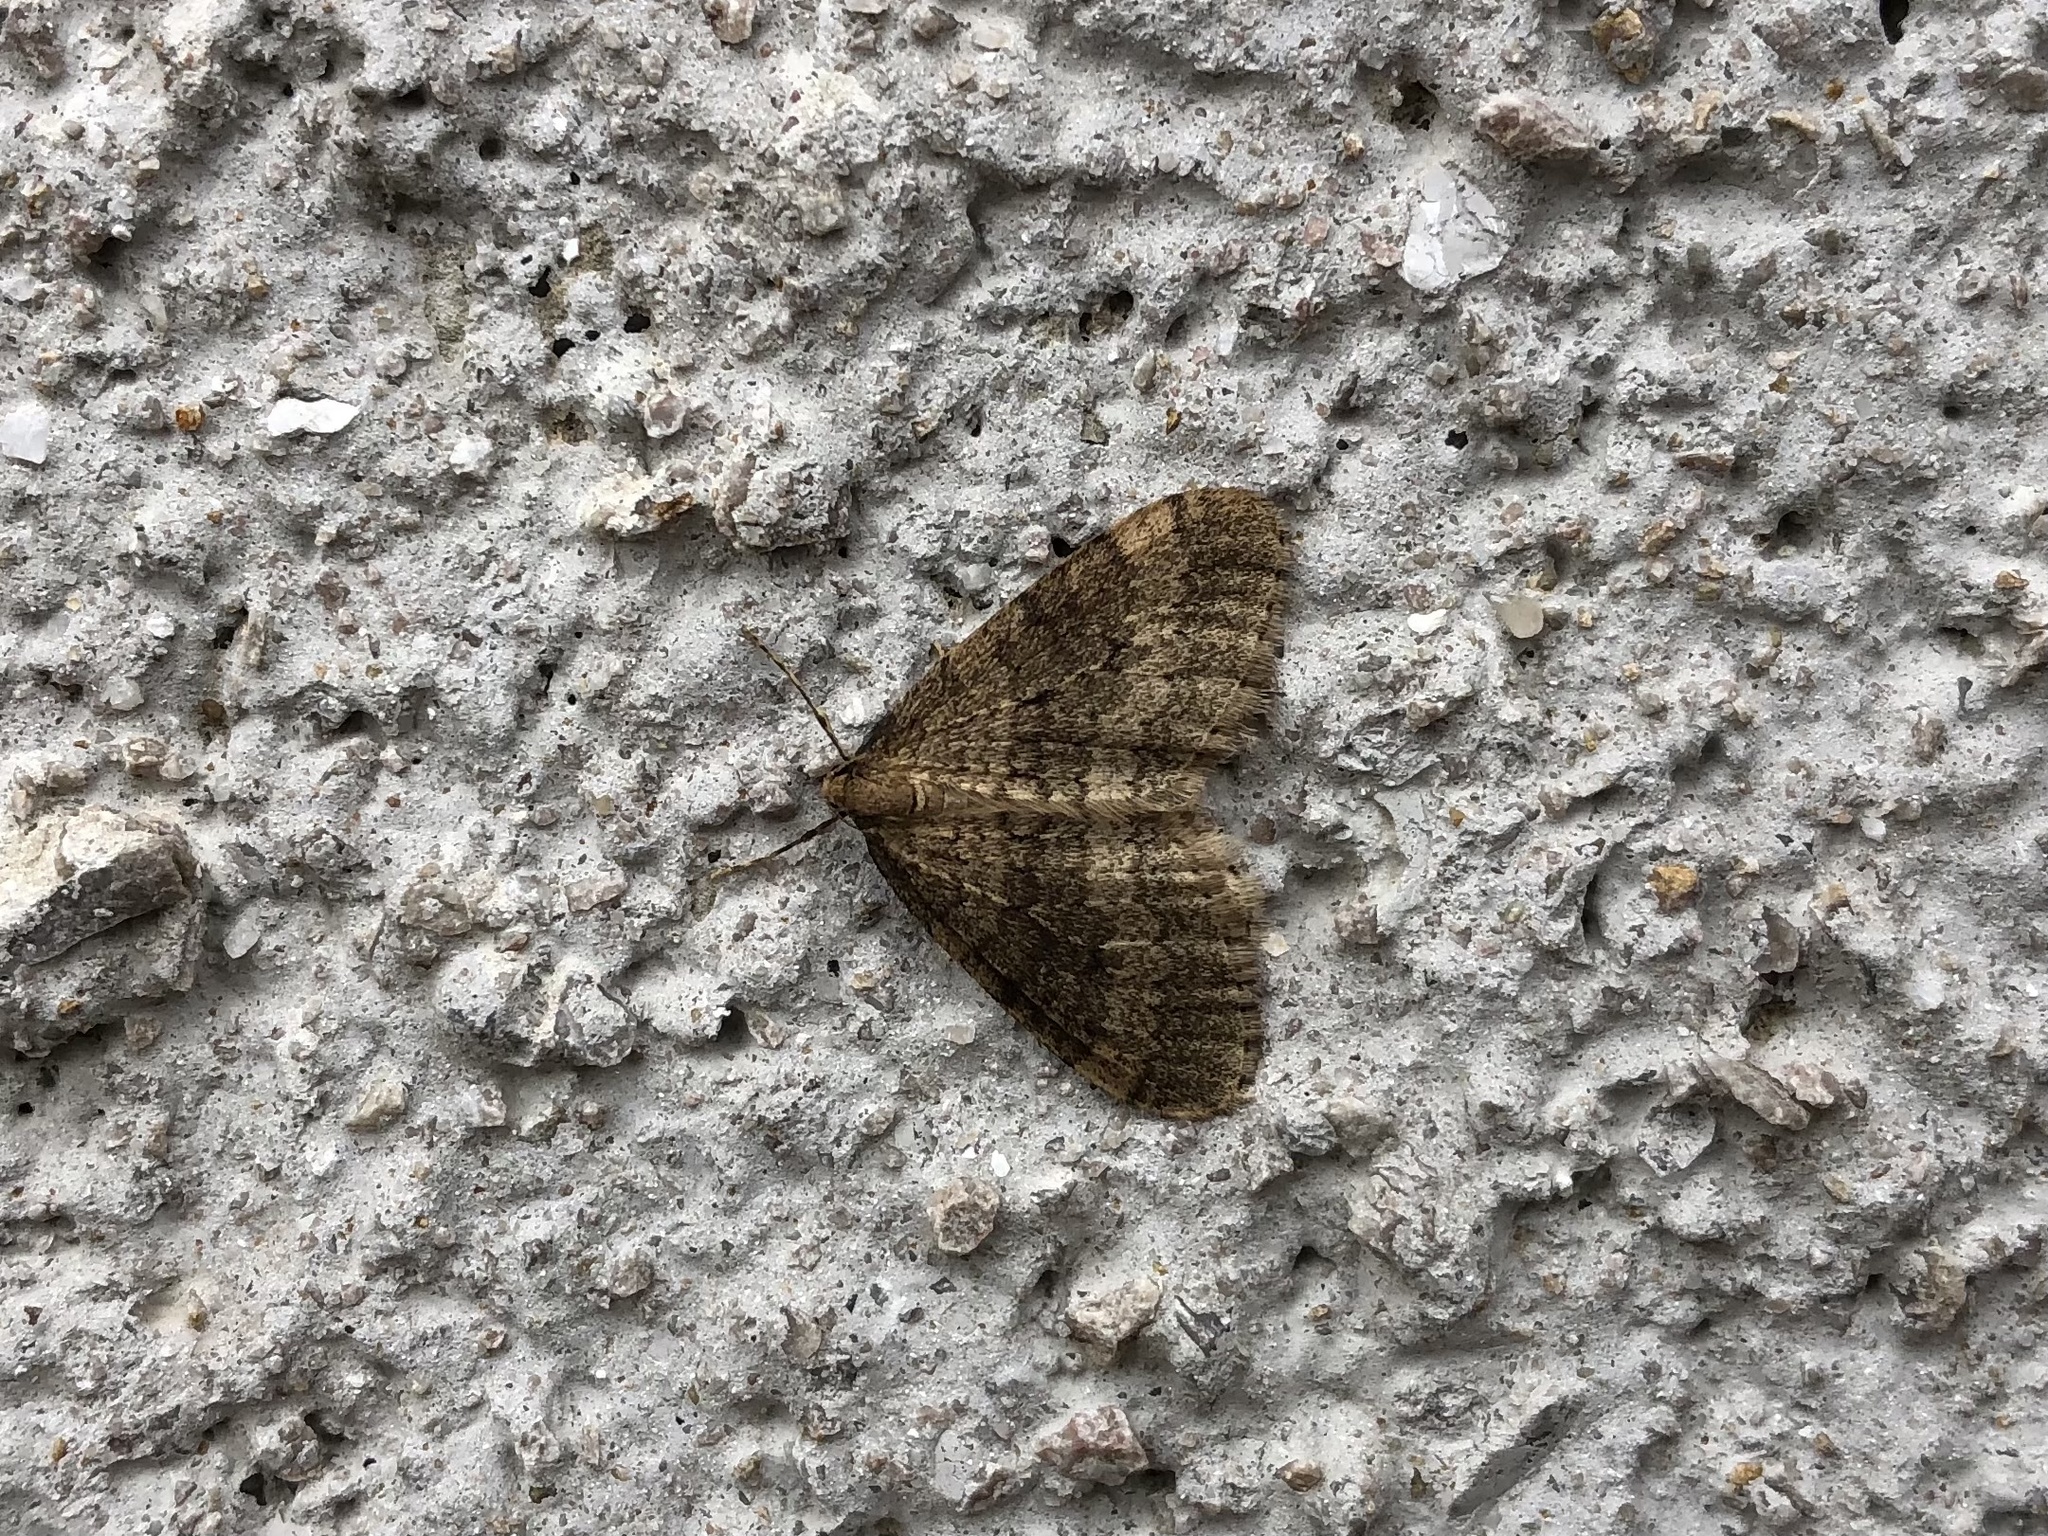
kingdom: Animalia
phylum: Arthropoda
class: Insecta
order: Lepidoptera
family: Geometridae
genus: Operophtera
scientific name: Operophtera brumata
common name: Winter moth
